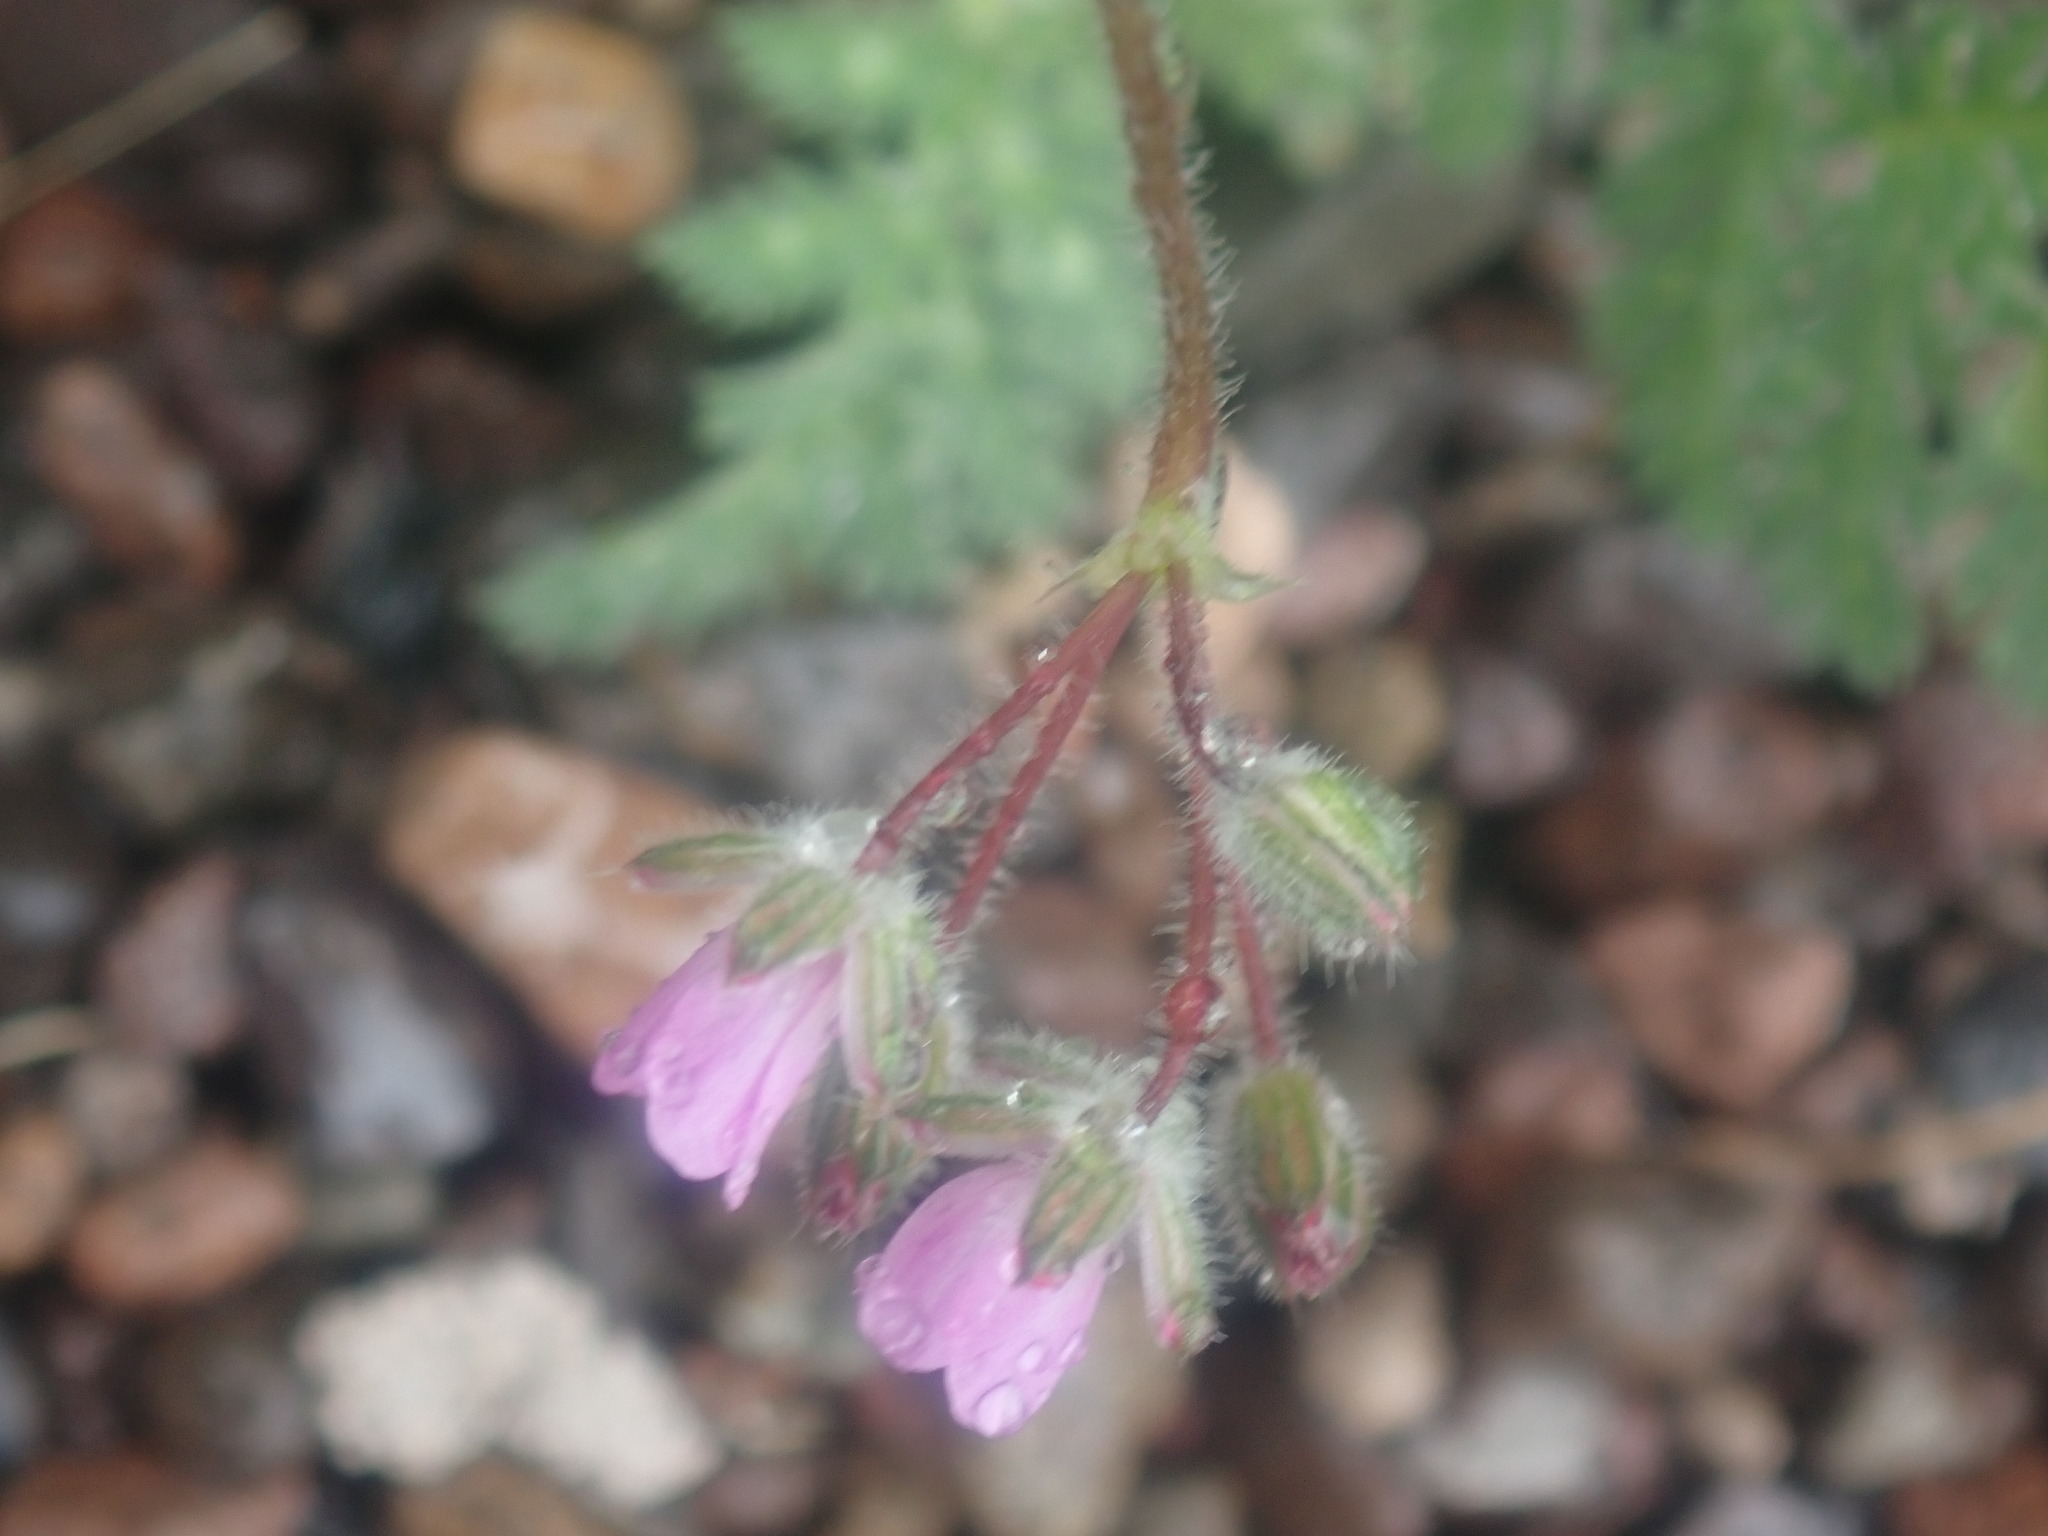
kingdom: Plantae
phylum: Tracheophyta
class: Magnoliopsida
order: Geraniales
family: Geraniaceae
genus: Erodium
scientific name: Erodium cicutarium
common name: Common stork's-bill
